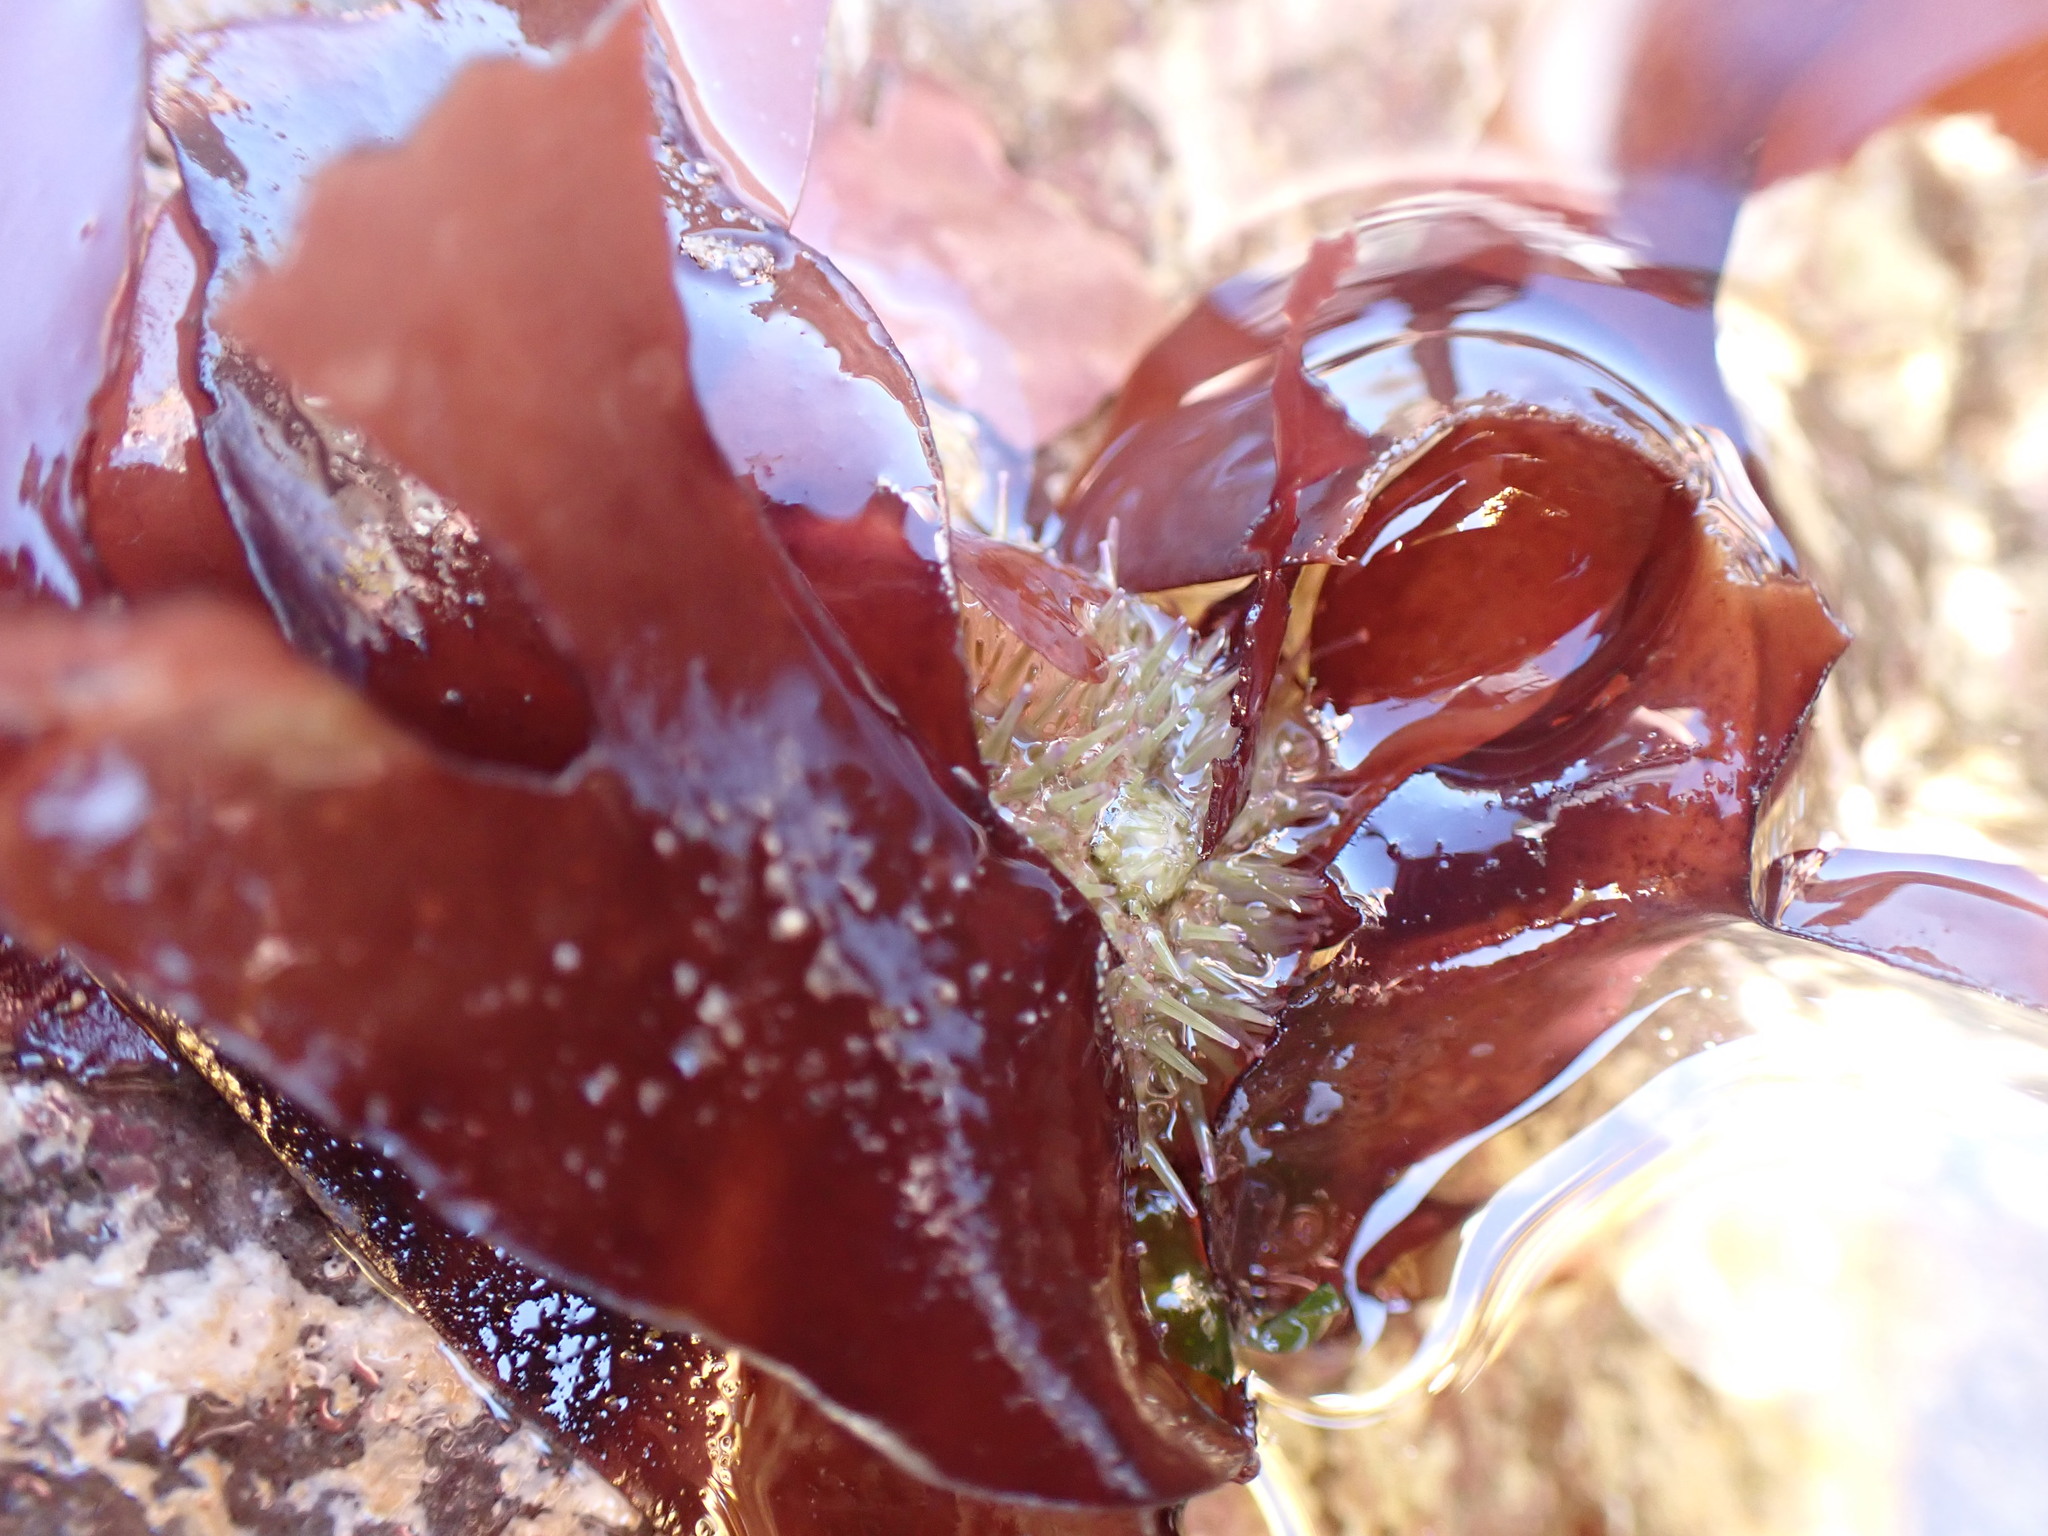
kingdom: Animalia
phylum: Echinodermata
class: Echinoidea
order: Camarodonta
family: Parechinidae
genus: Psammechinus
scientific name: Psammechinus miliaris
